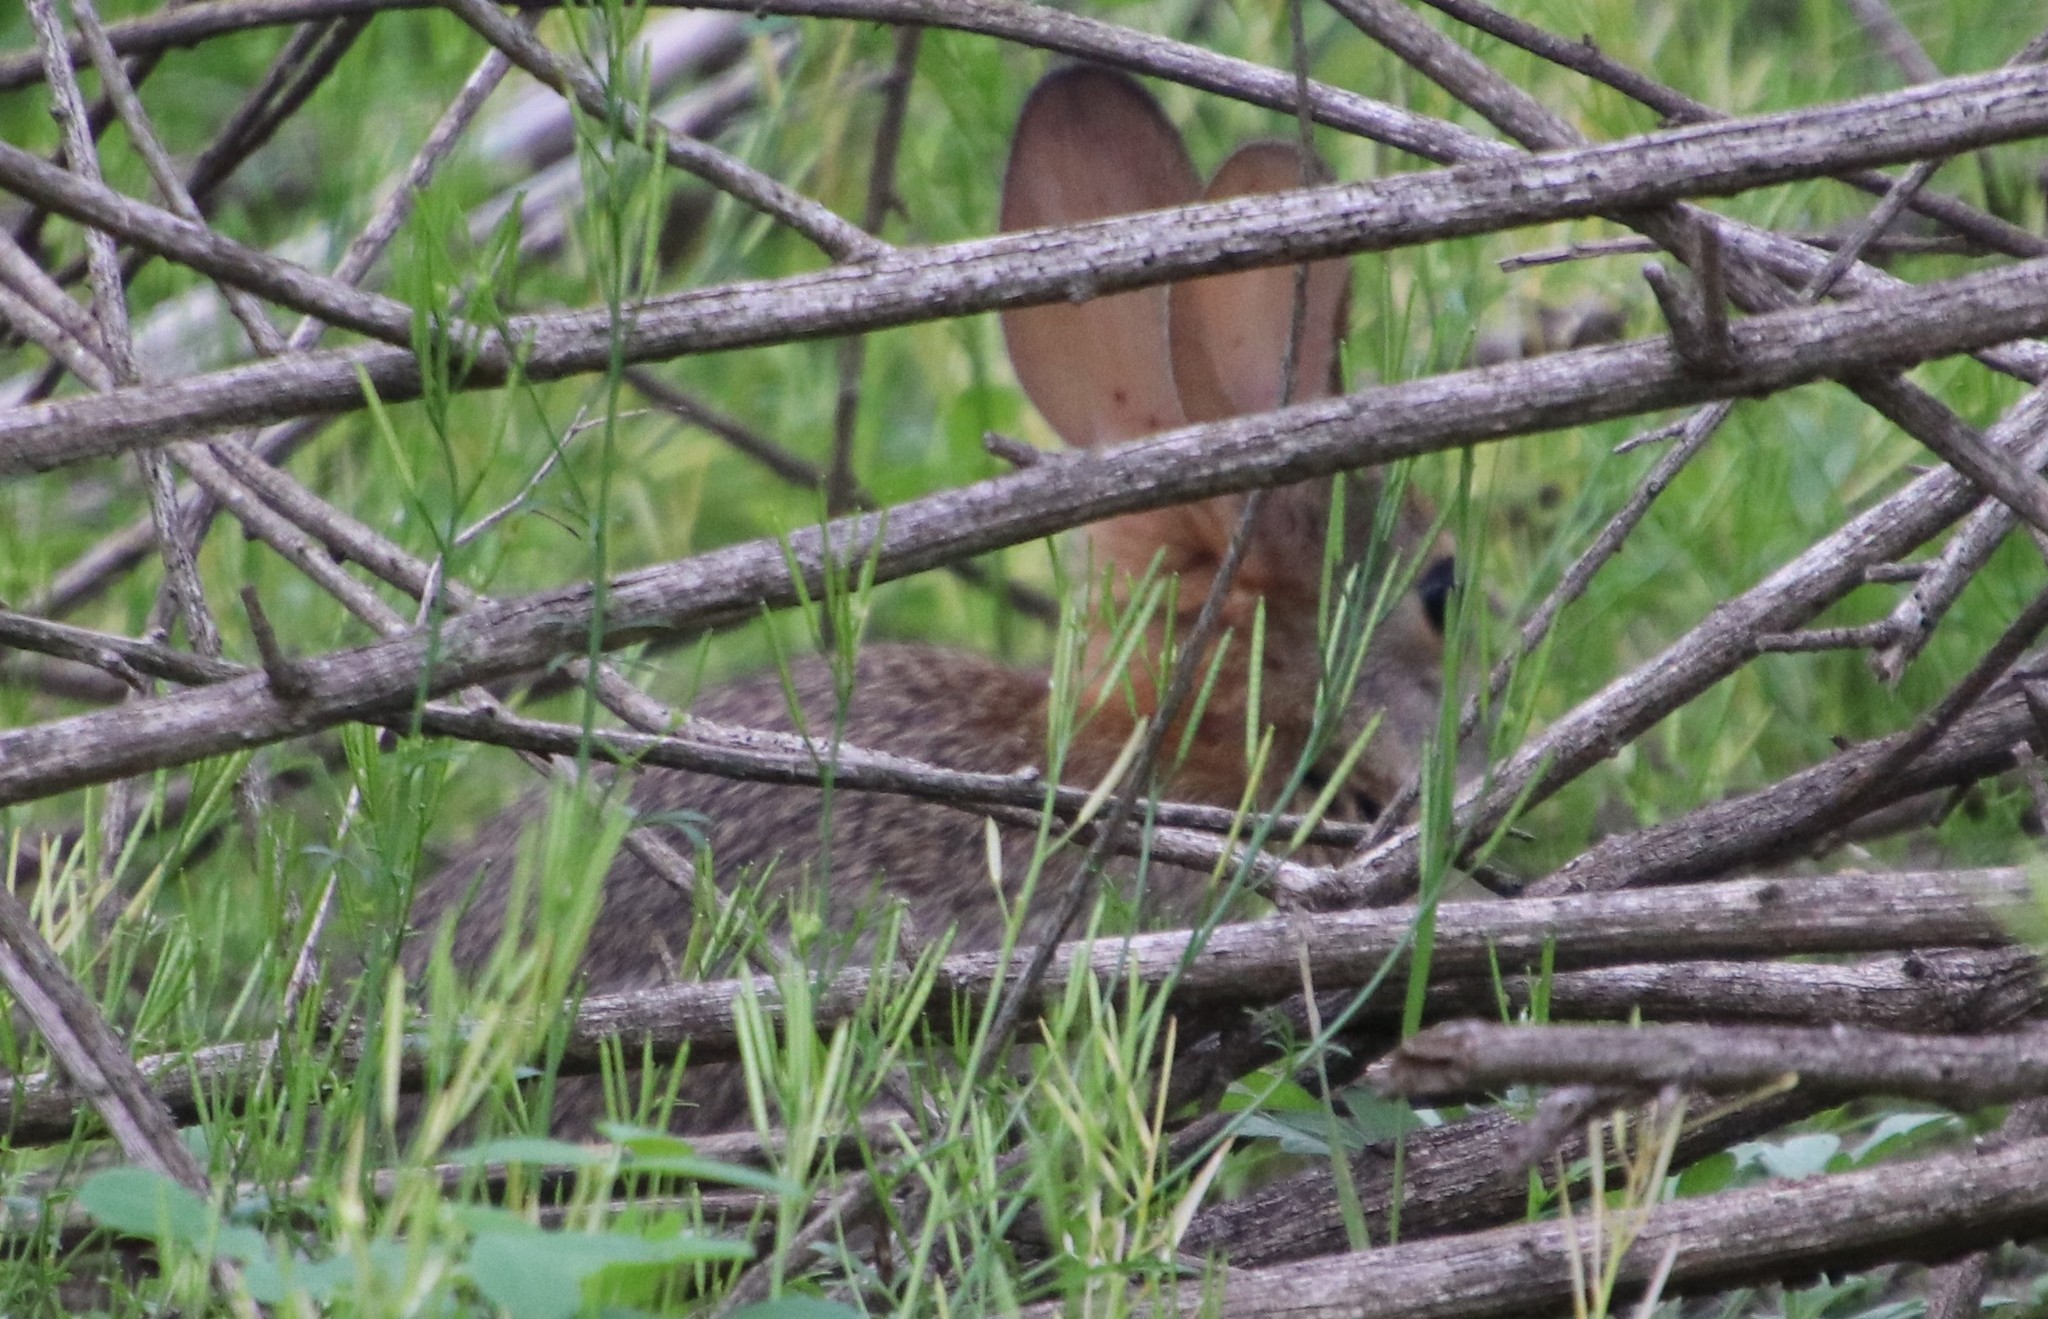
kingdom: Animalia
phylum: Chordata
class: Mammalia
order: Lagomorpha
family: Leporidae
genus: Sylvilagus
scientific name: Sylvilagus audubonii
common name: Desert cottontail
